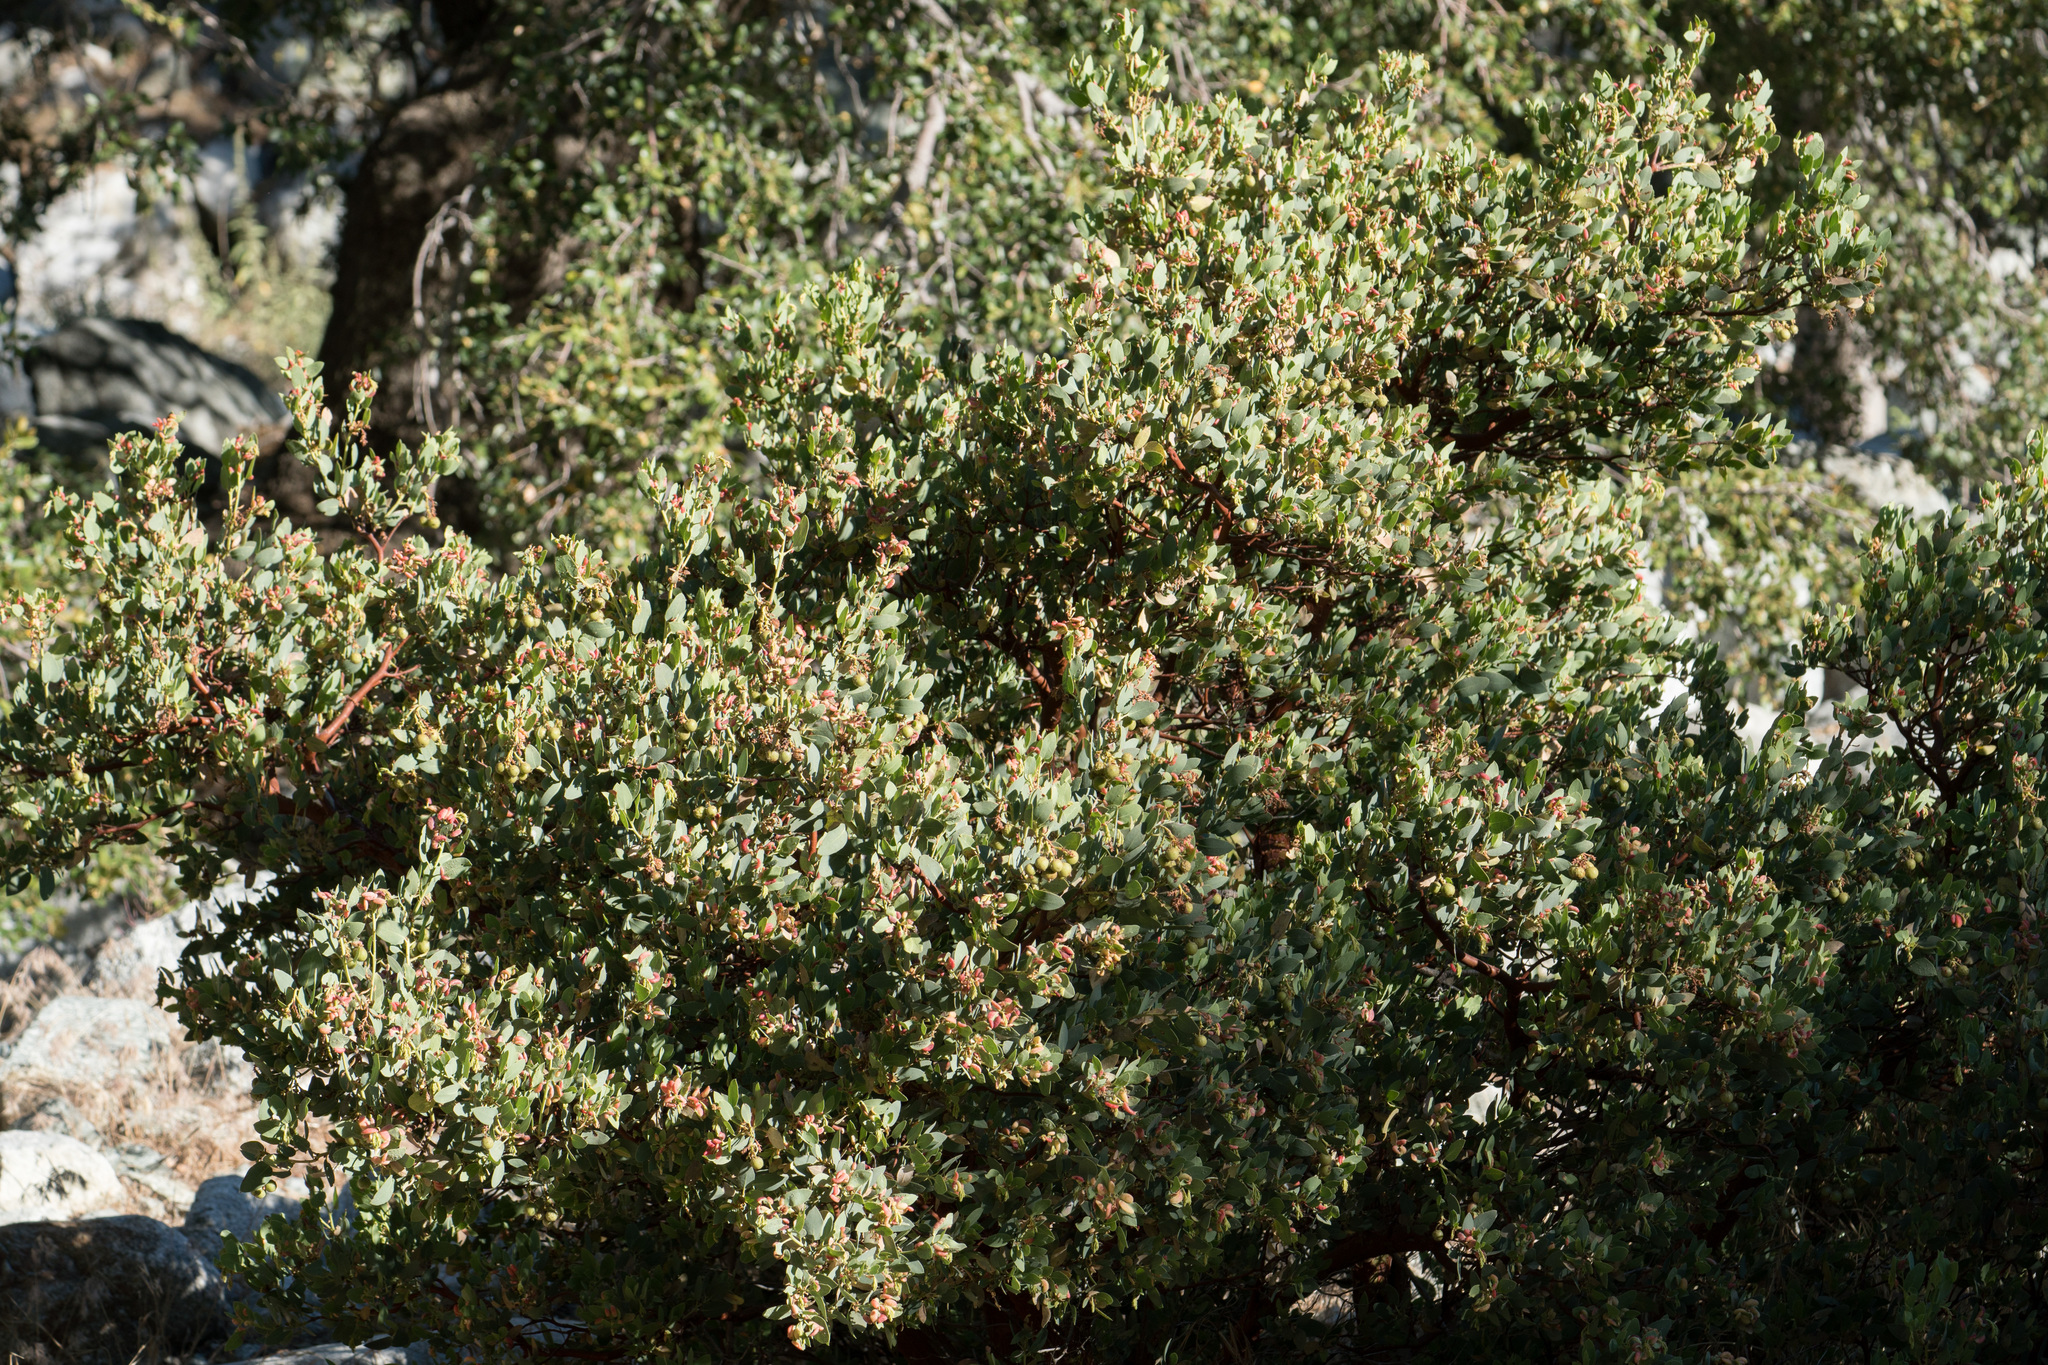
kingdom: Plantae
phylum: Tracheophyta
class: Magnoliopsida
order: Ericales
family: Ericaceae
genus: Arctostaphylos
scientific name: Arctostaphylos glauca
